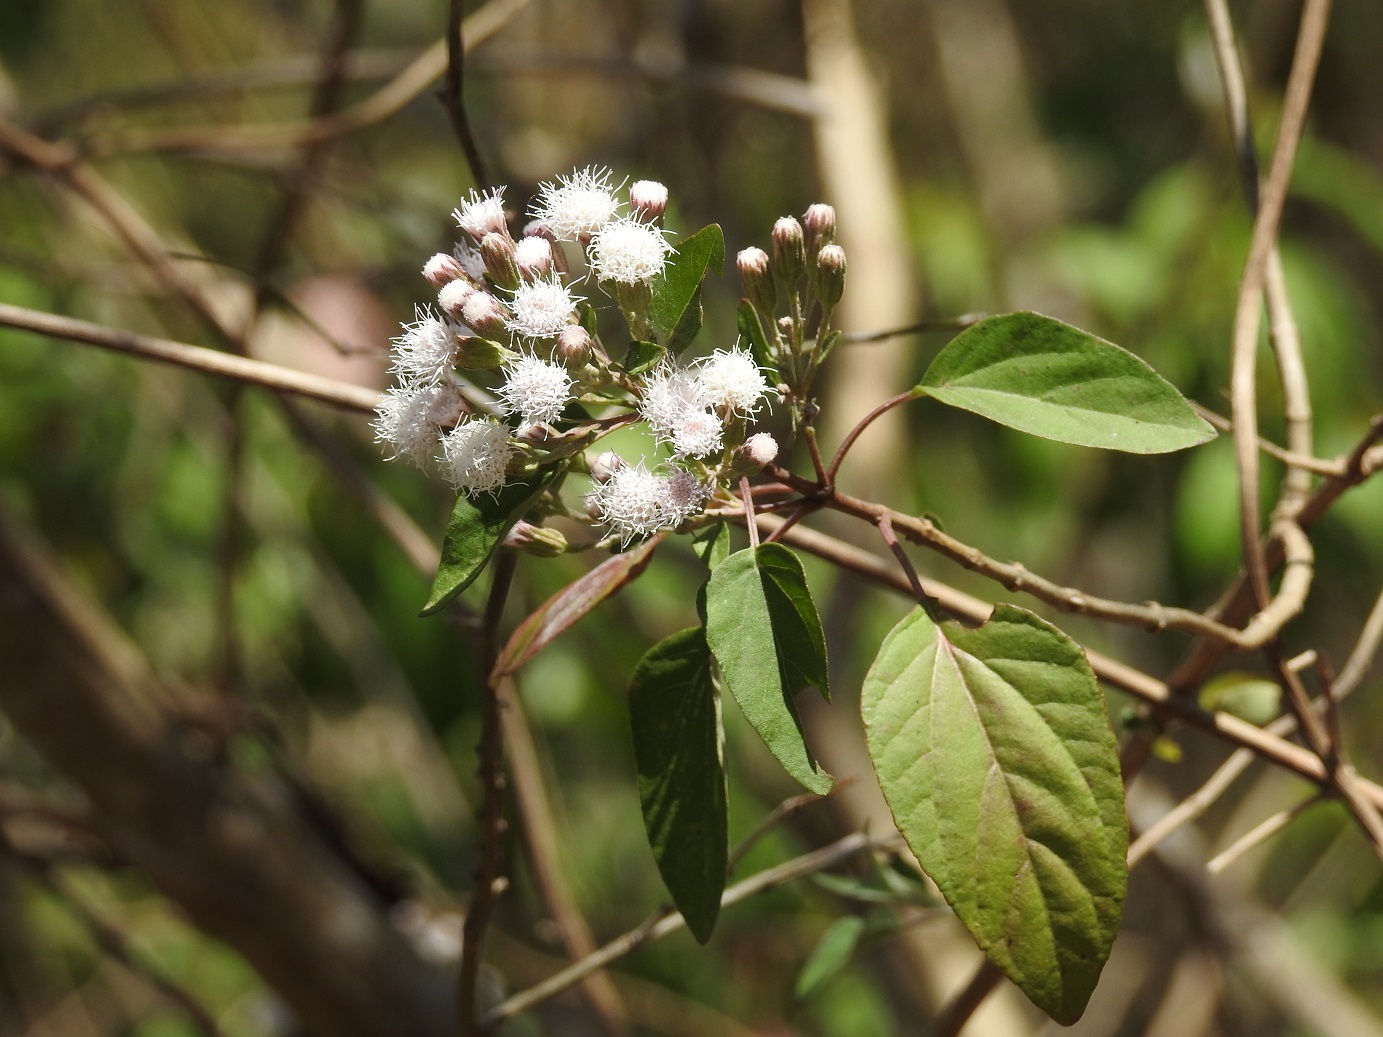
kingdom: Plantae
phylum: Tracheophyta
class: Magnoliopsida
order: Asterales
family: Asteraceae
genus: Ageratina
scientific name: Ageratina pichinchensis
